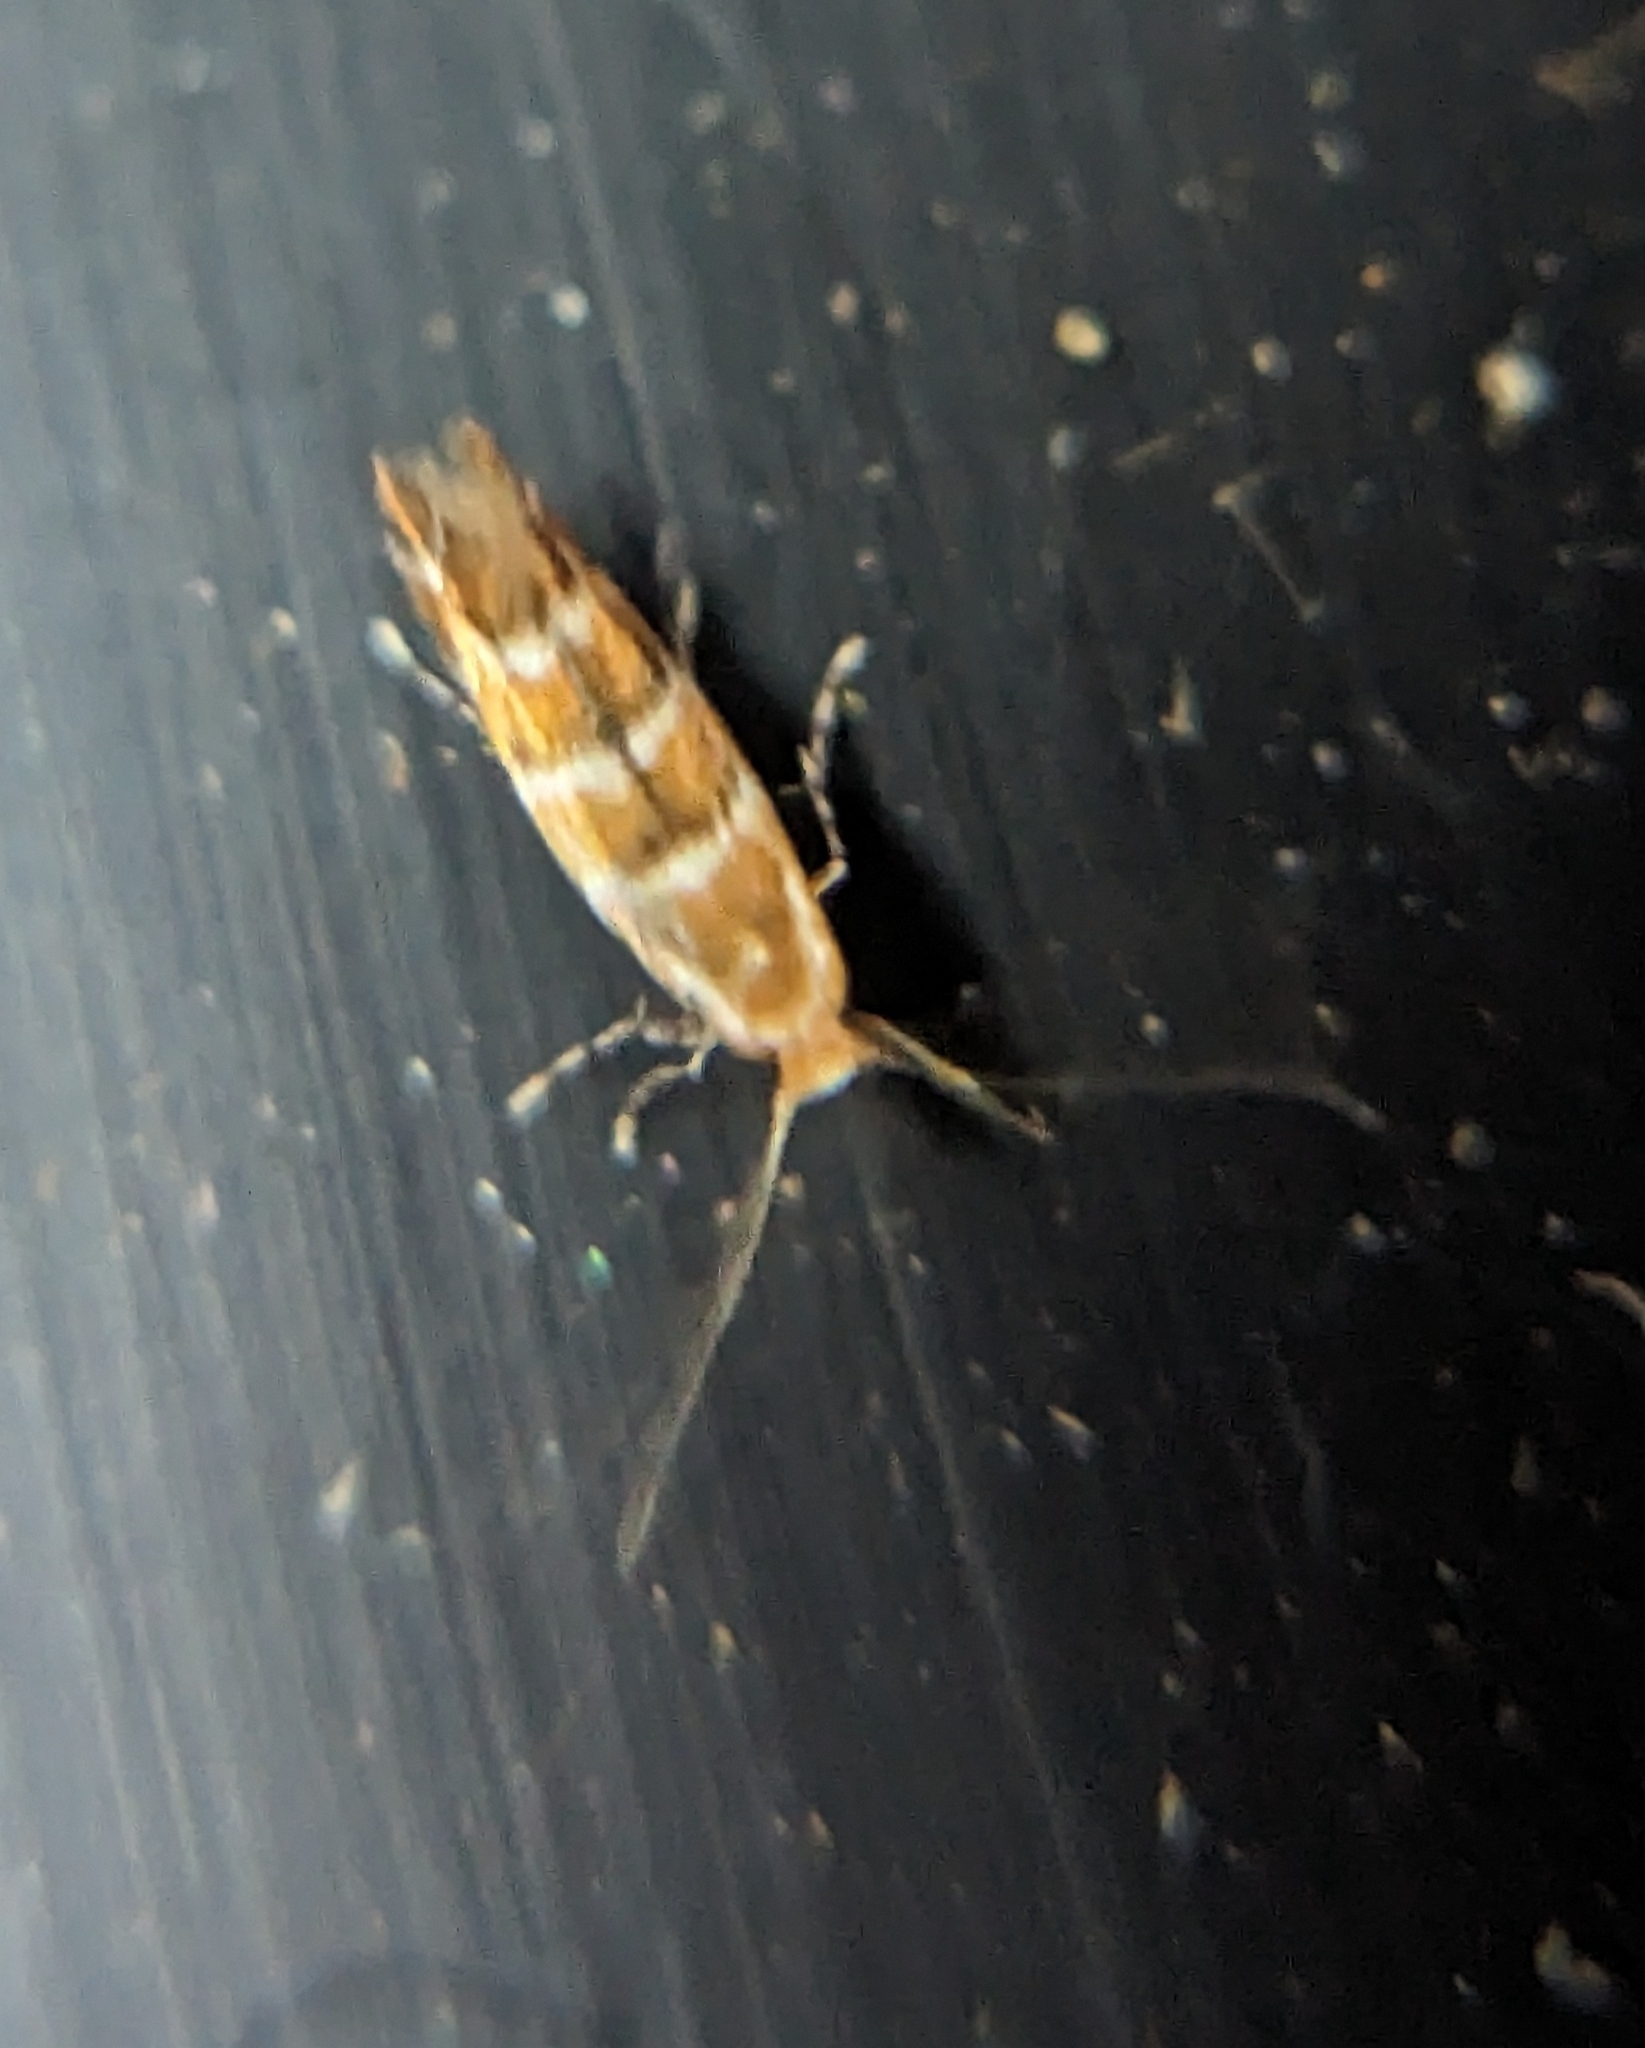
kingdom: Animalia
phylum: Arthropoda
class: Insecta
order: Lepidoptera
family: Gracillariidae
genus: Cameraria
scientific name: Cameraria ohridella
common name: Horse-chestnut leaf-miner
